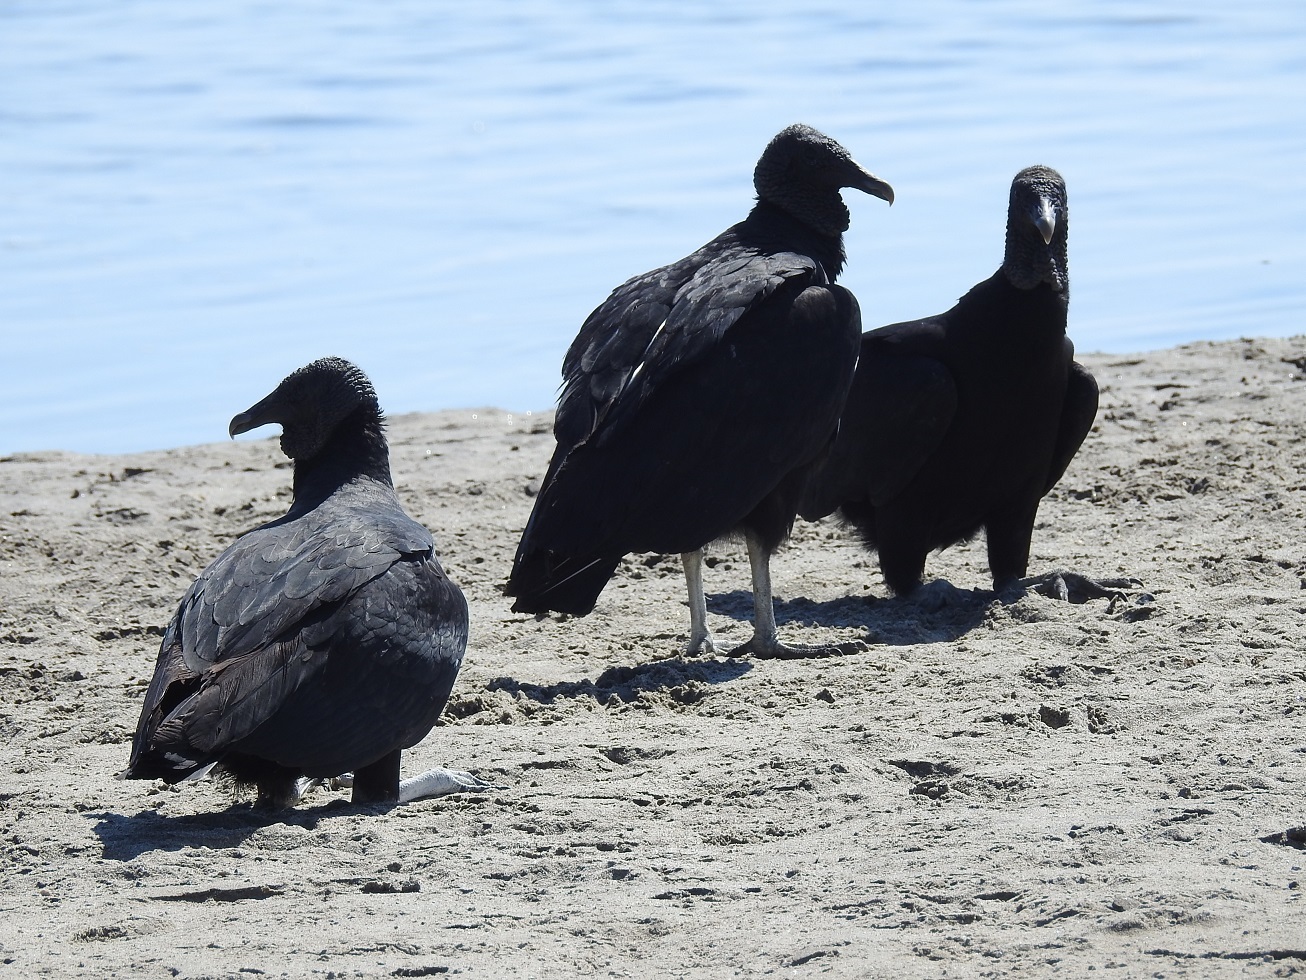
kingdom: Animalia
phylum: Chordata
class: Aves
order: Accipitriformes
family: Cathartidae
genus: Coragyps
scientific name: Coragyps atratus
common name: Black vulture
